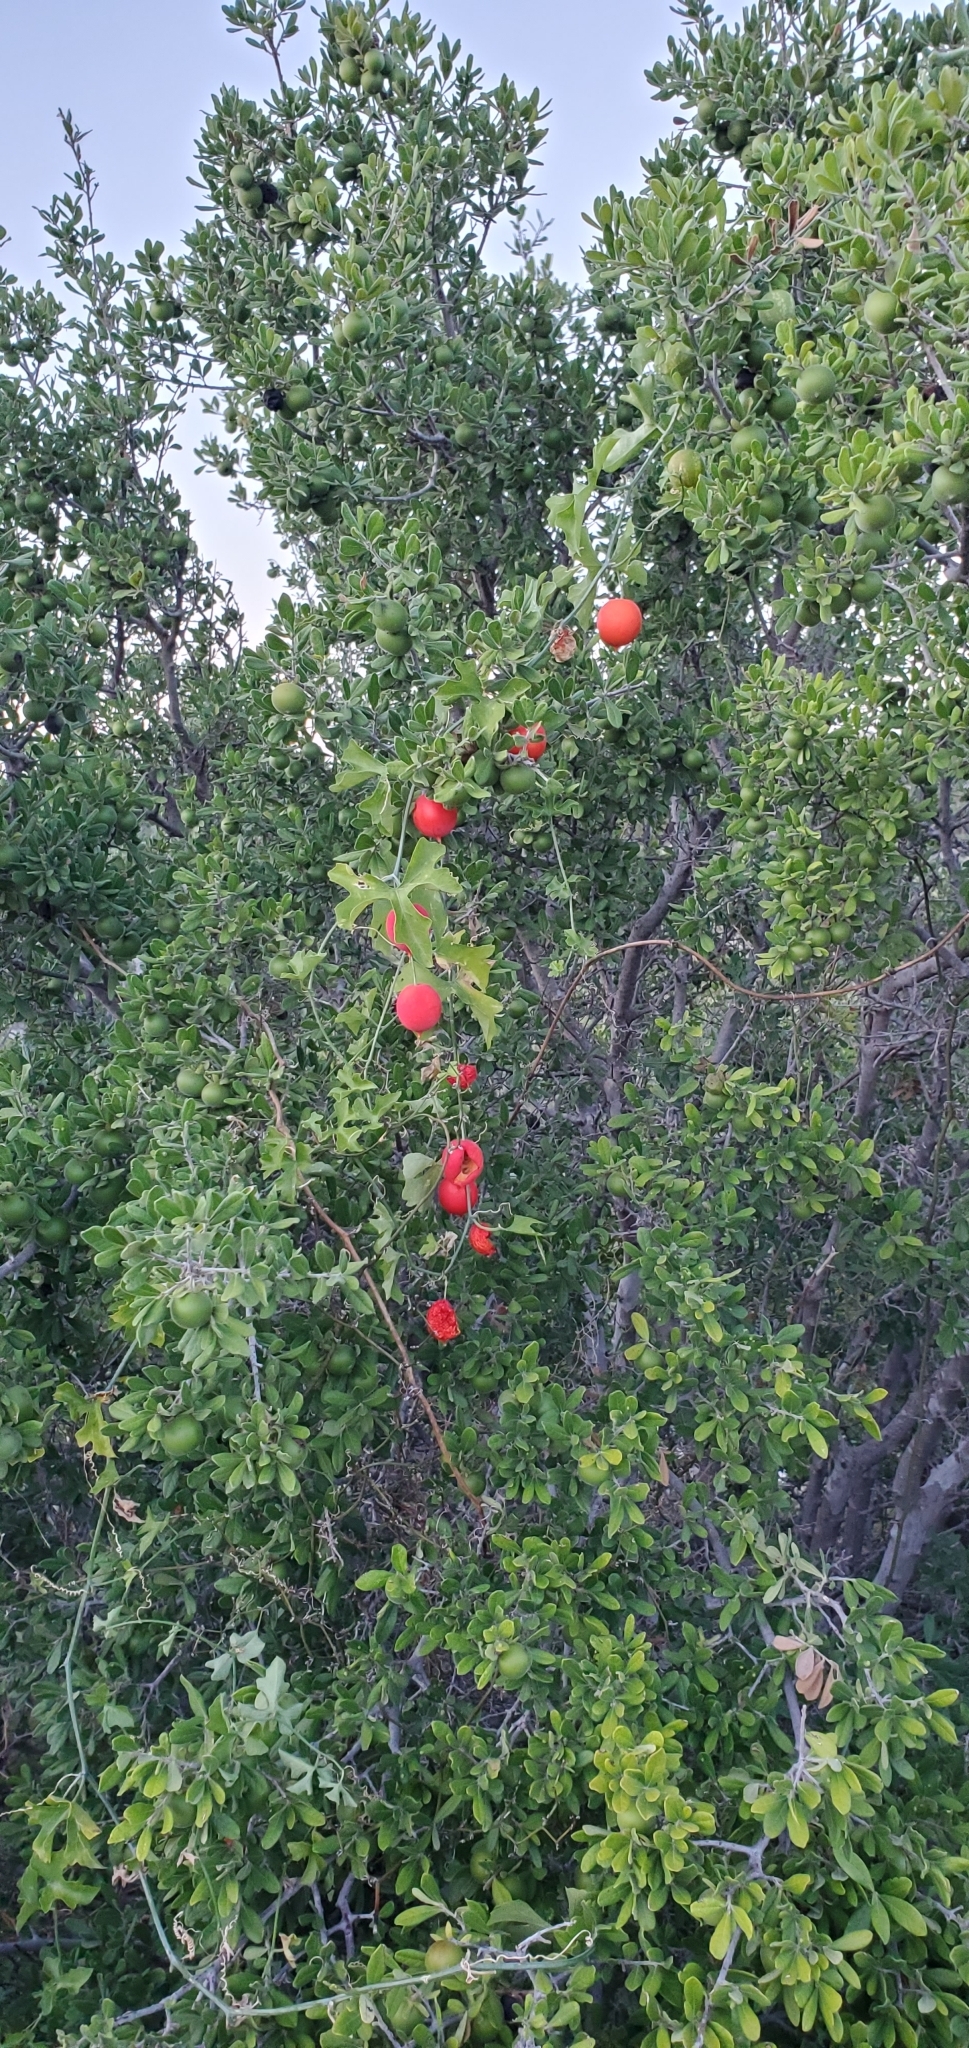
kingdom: Plantae
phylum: Tracheophyta
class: Magnoliopsida
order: Cucurbitales
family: Cucurbitaceae
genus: Ibervillea
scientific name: Ibervillea lindheimeri
